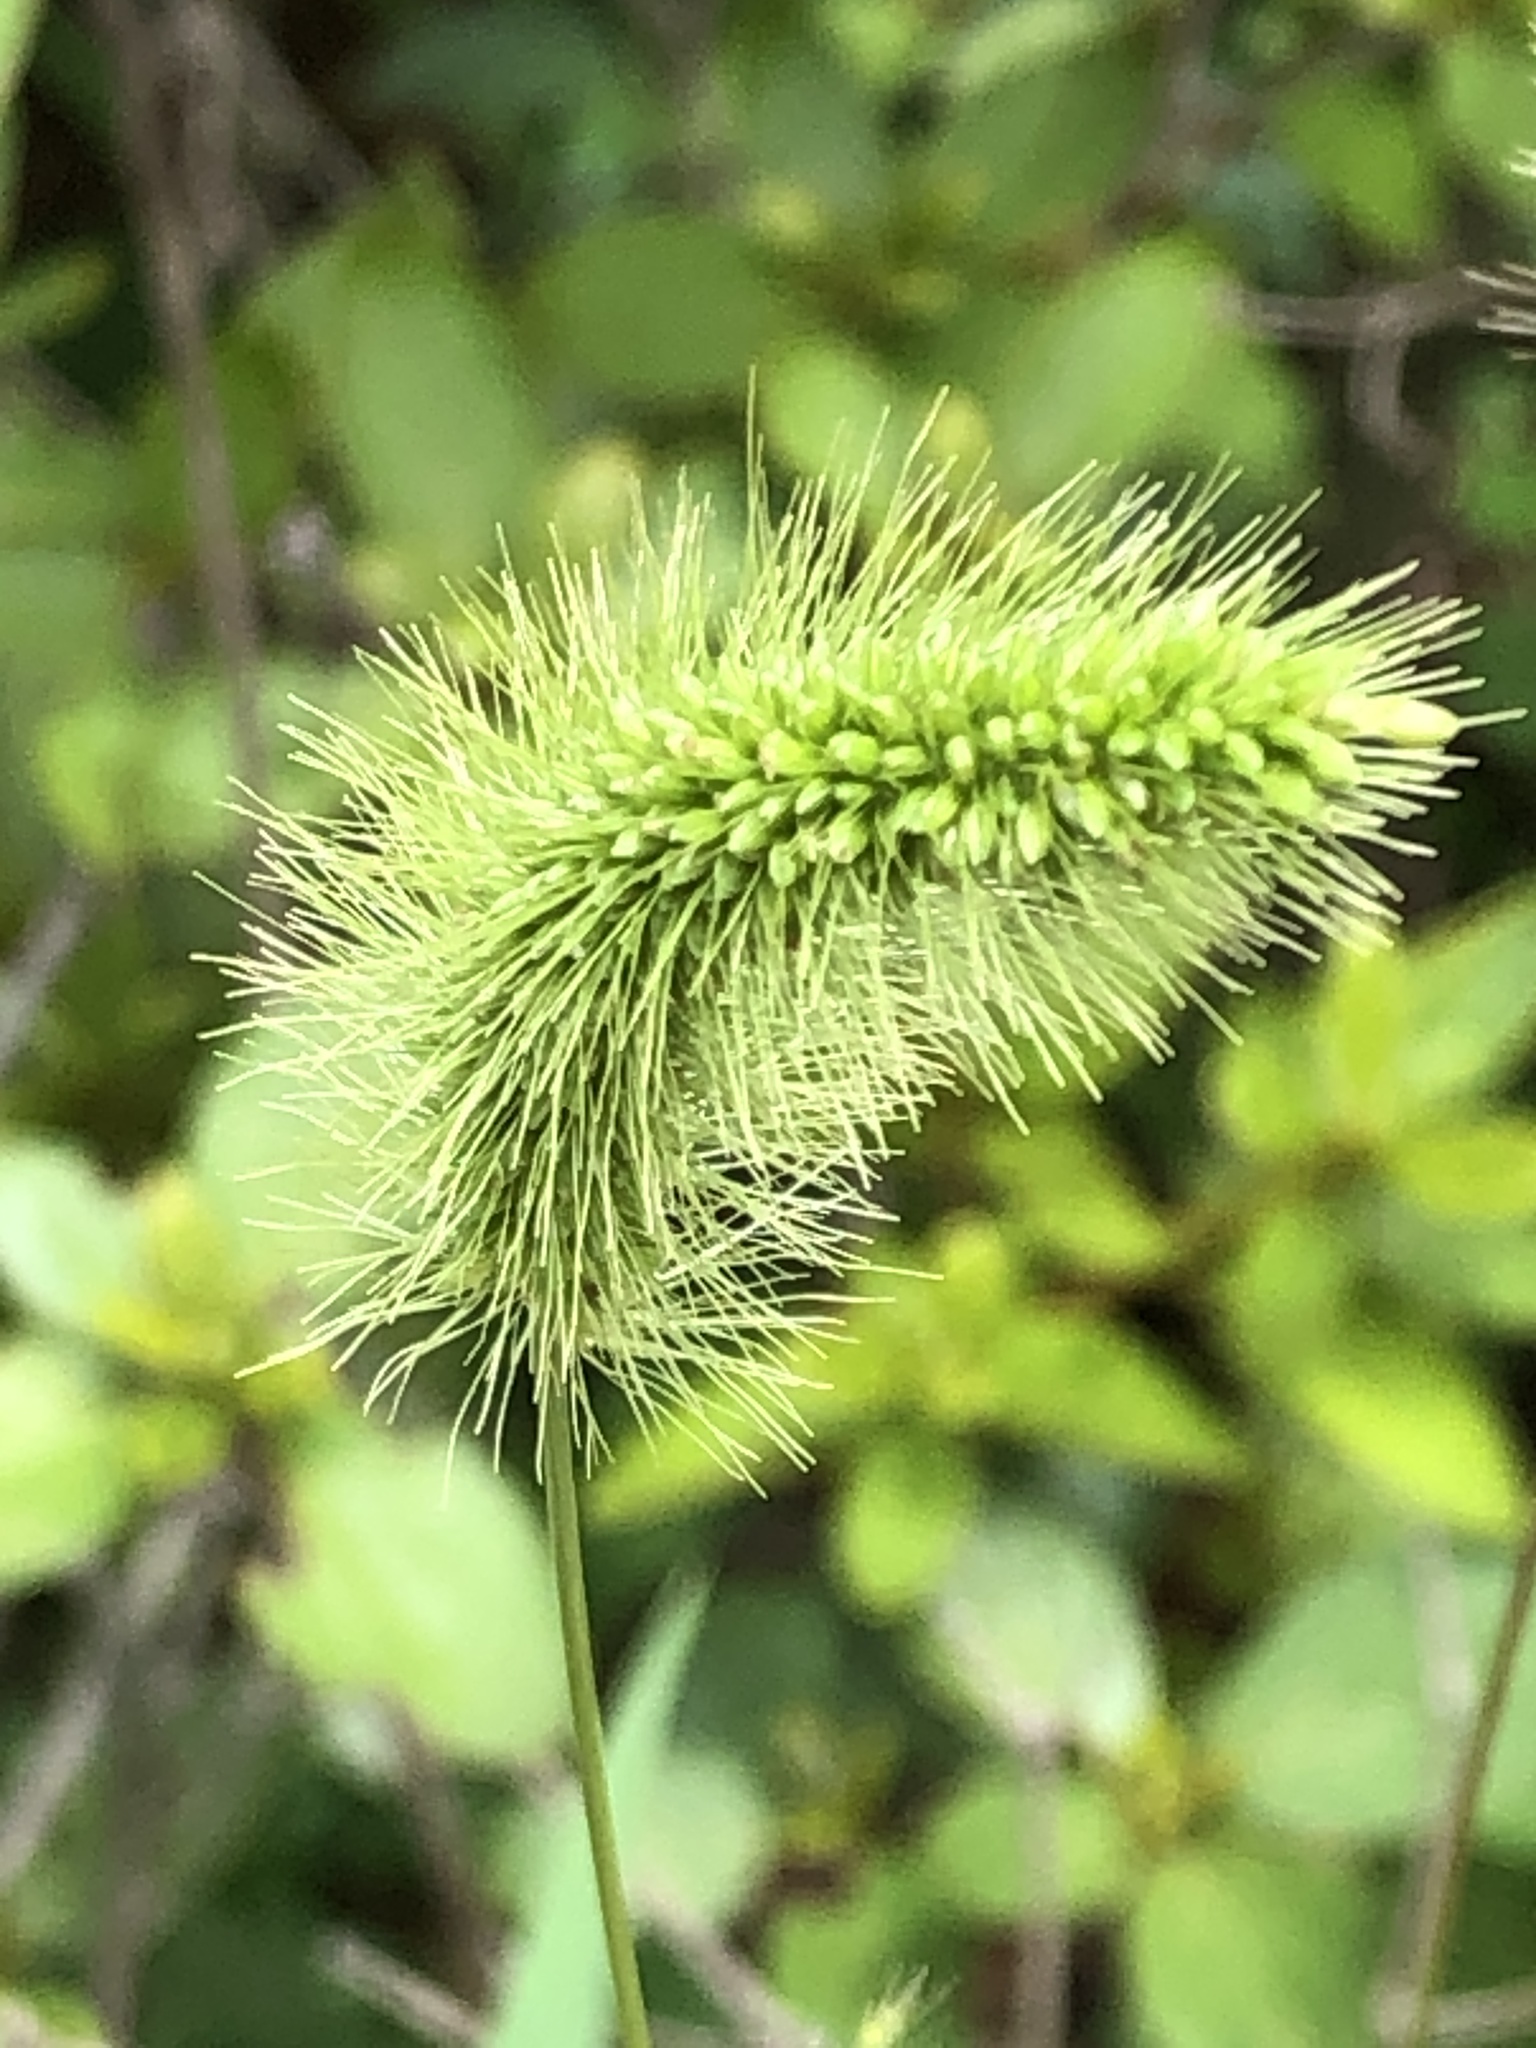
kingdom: Plantae
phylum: Tracheophyta
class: Liliopsida
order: Poales
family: Poaceae
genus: Setaria
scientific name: Setaria viridis
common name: Green bristlegrass
